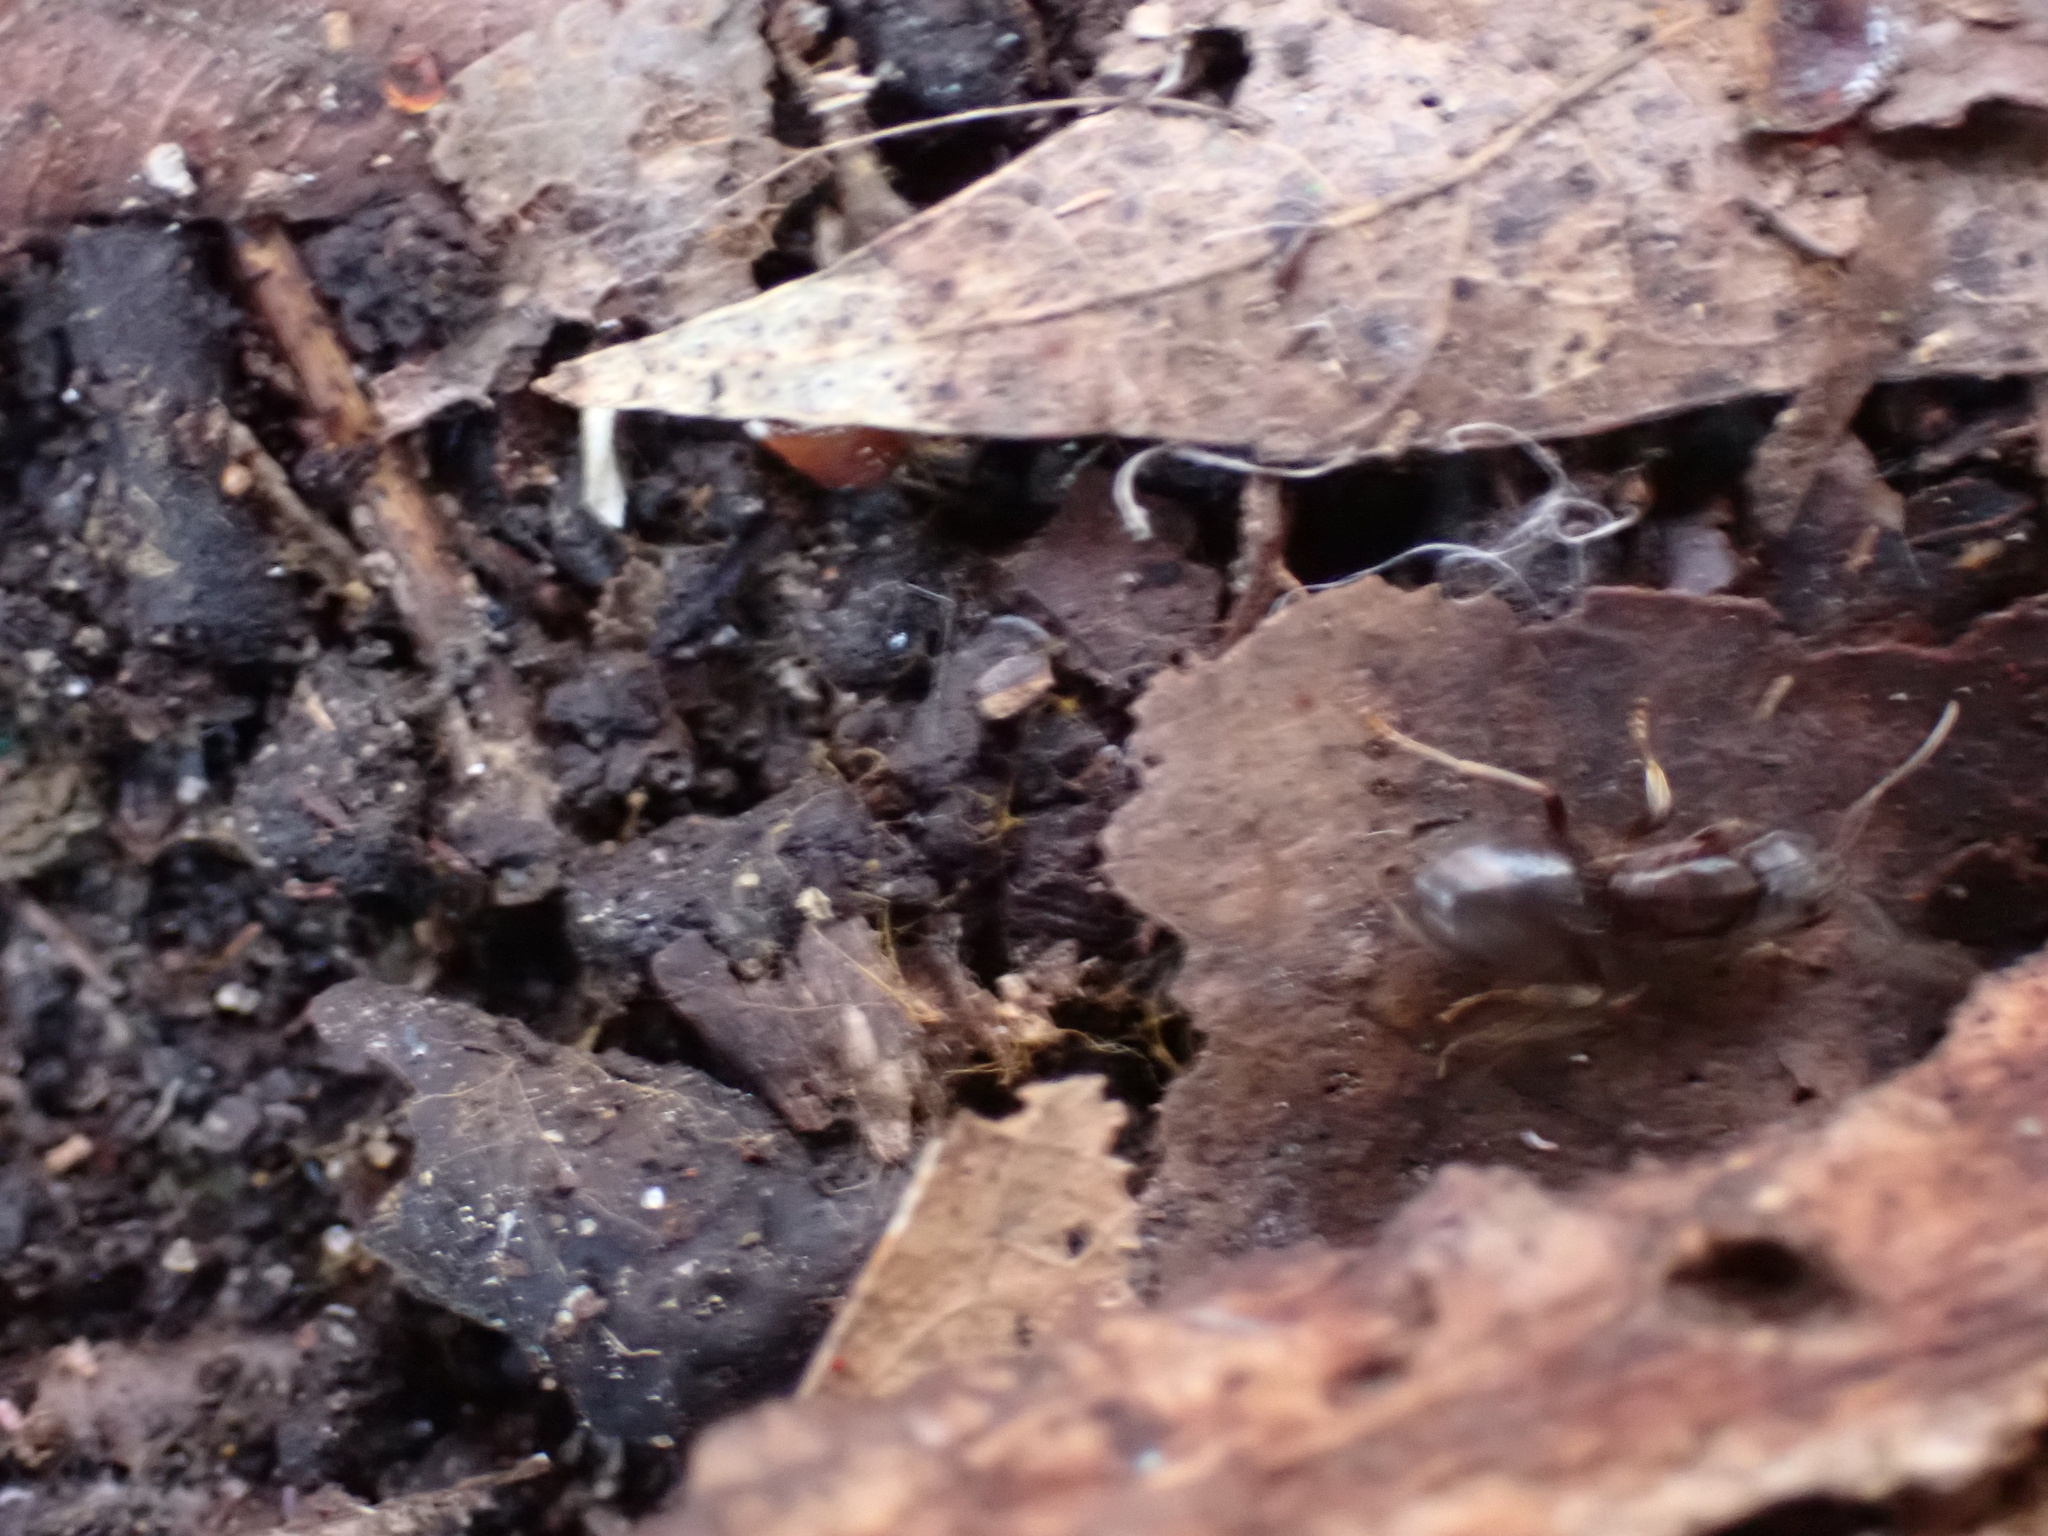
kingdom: Animalia
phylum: Arthropoda
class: Insecta
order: Hymenoptera
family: Formicidae
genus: Lasius
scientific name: Lasius aphidicola
